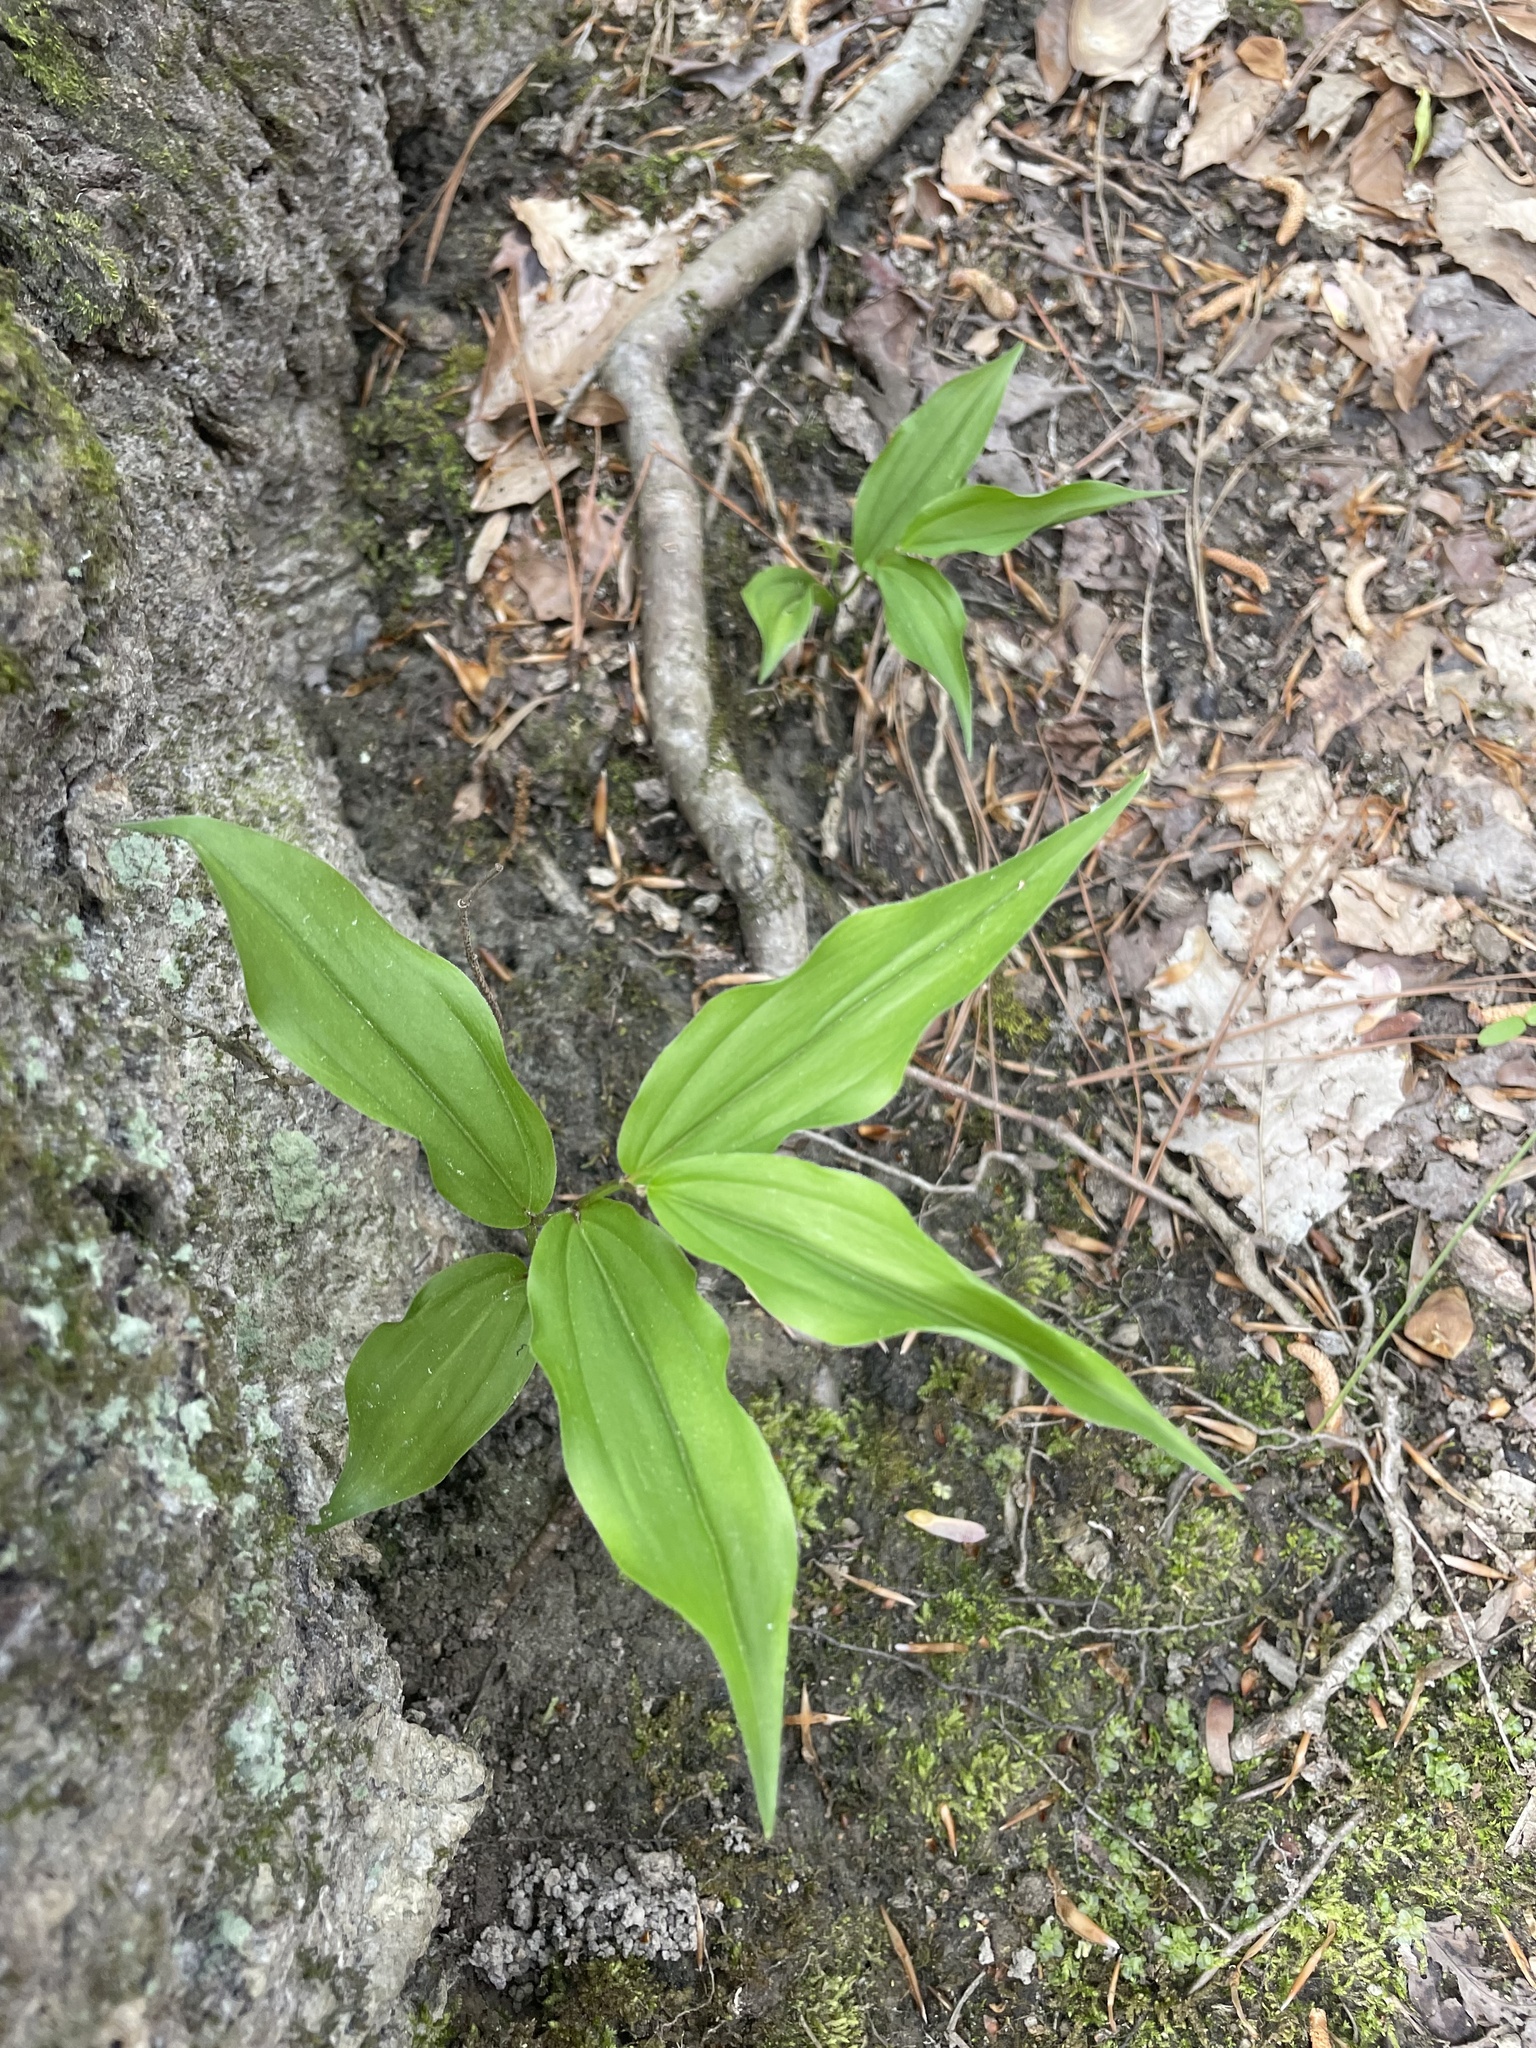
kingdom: Plantae
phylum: Tracheophyta
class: Liliopsida
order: Asparagales
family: Asparagaceae
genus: Maianthemum
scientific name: Maianthemum racemosum
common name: False spikenard
